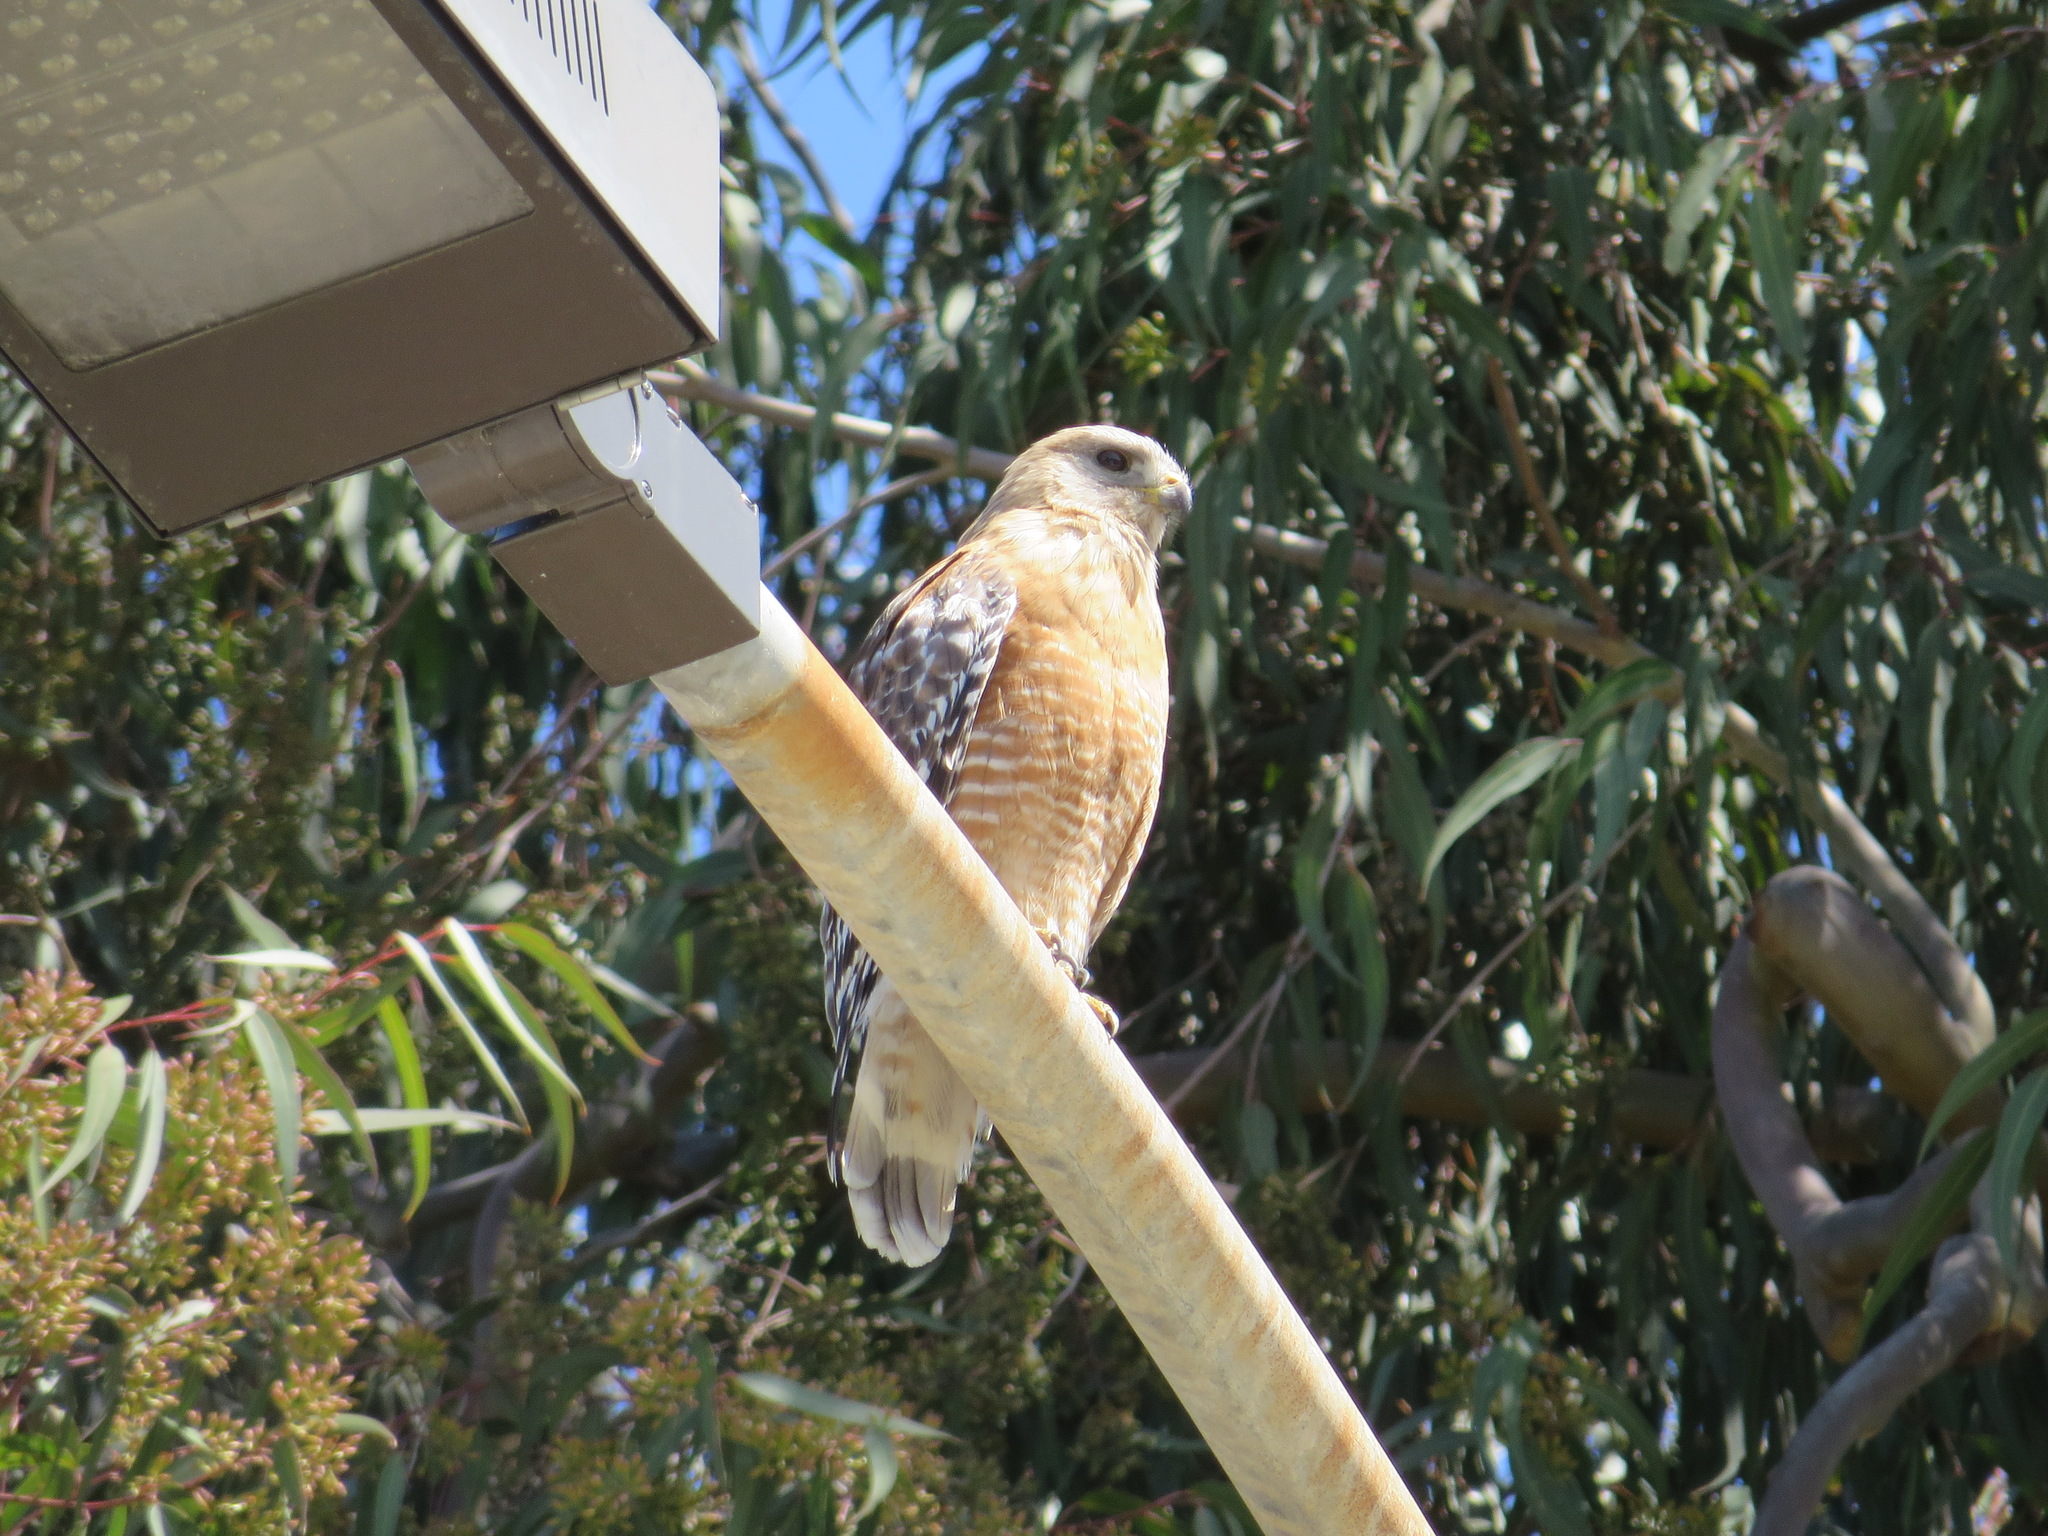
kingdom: Animalia
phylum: Chordata
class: Aves
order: Accipitriformes
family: Accipitridae
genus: Buteo
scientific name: Buteo lineatus
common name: Red-shouldered hawk
